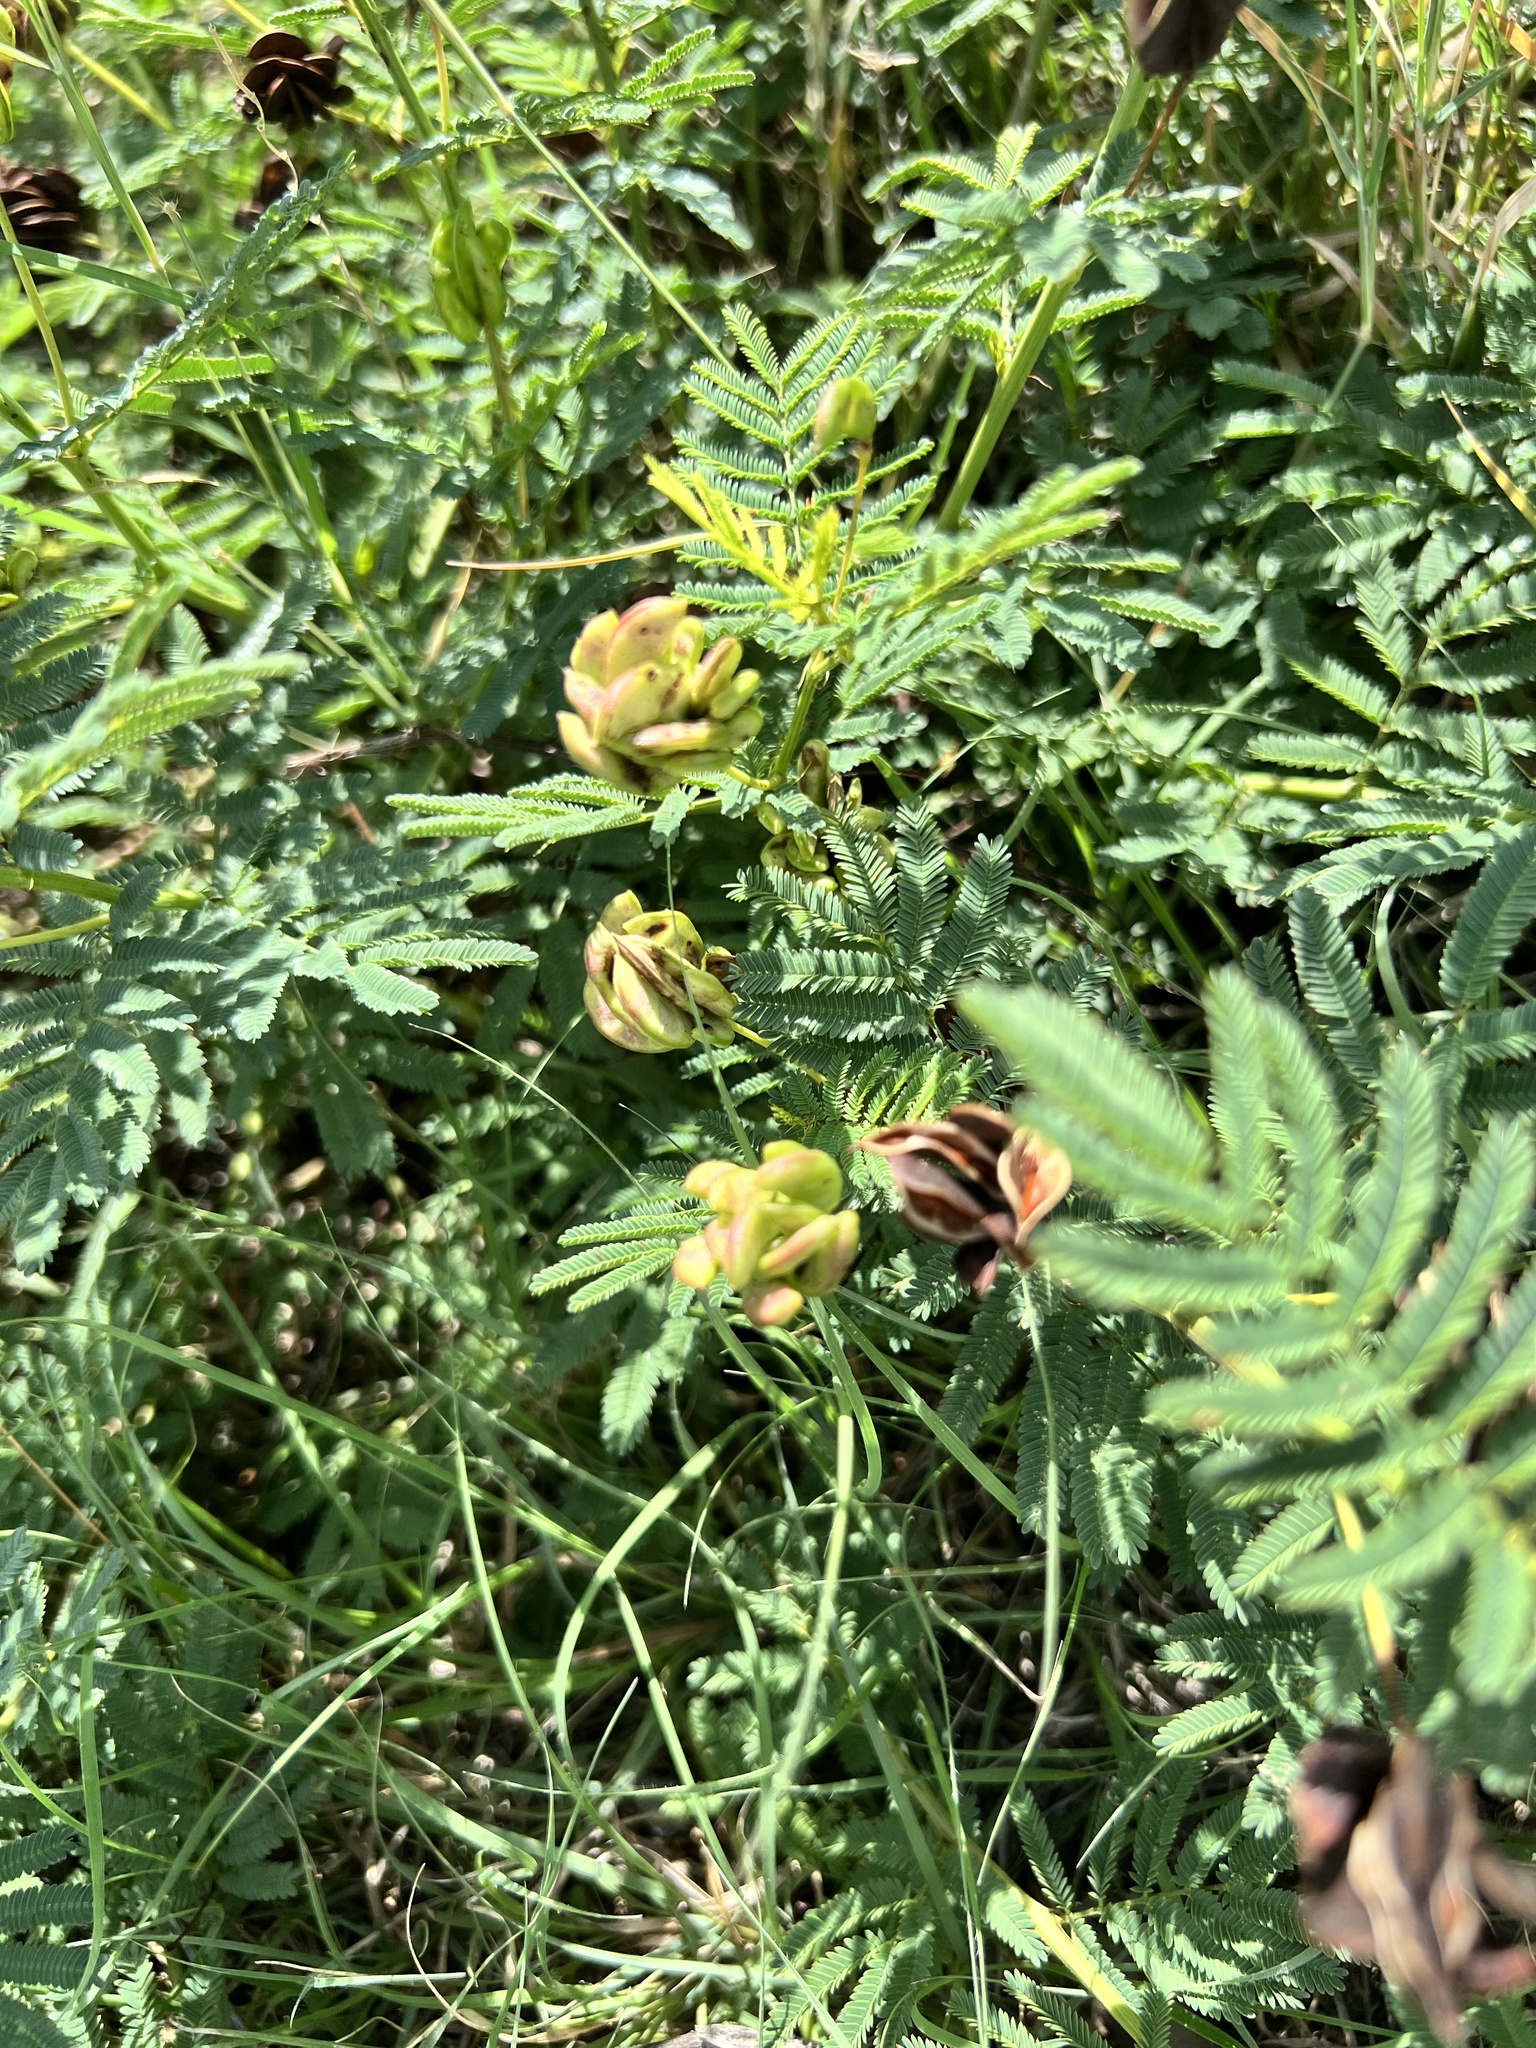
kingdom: Plantae
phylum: Tracheophyta
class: Magnoliopsida
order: Fabales
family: Fabaceae
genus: Desmanthus
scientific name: Desmanthus illinoensis
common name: Illinois bundle-flower
